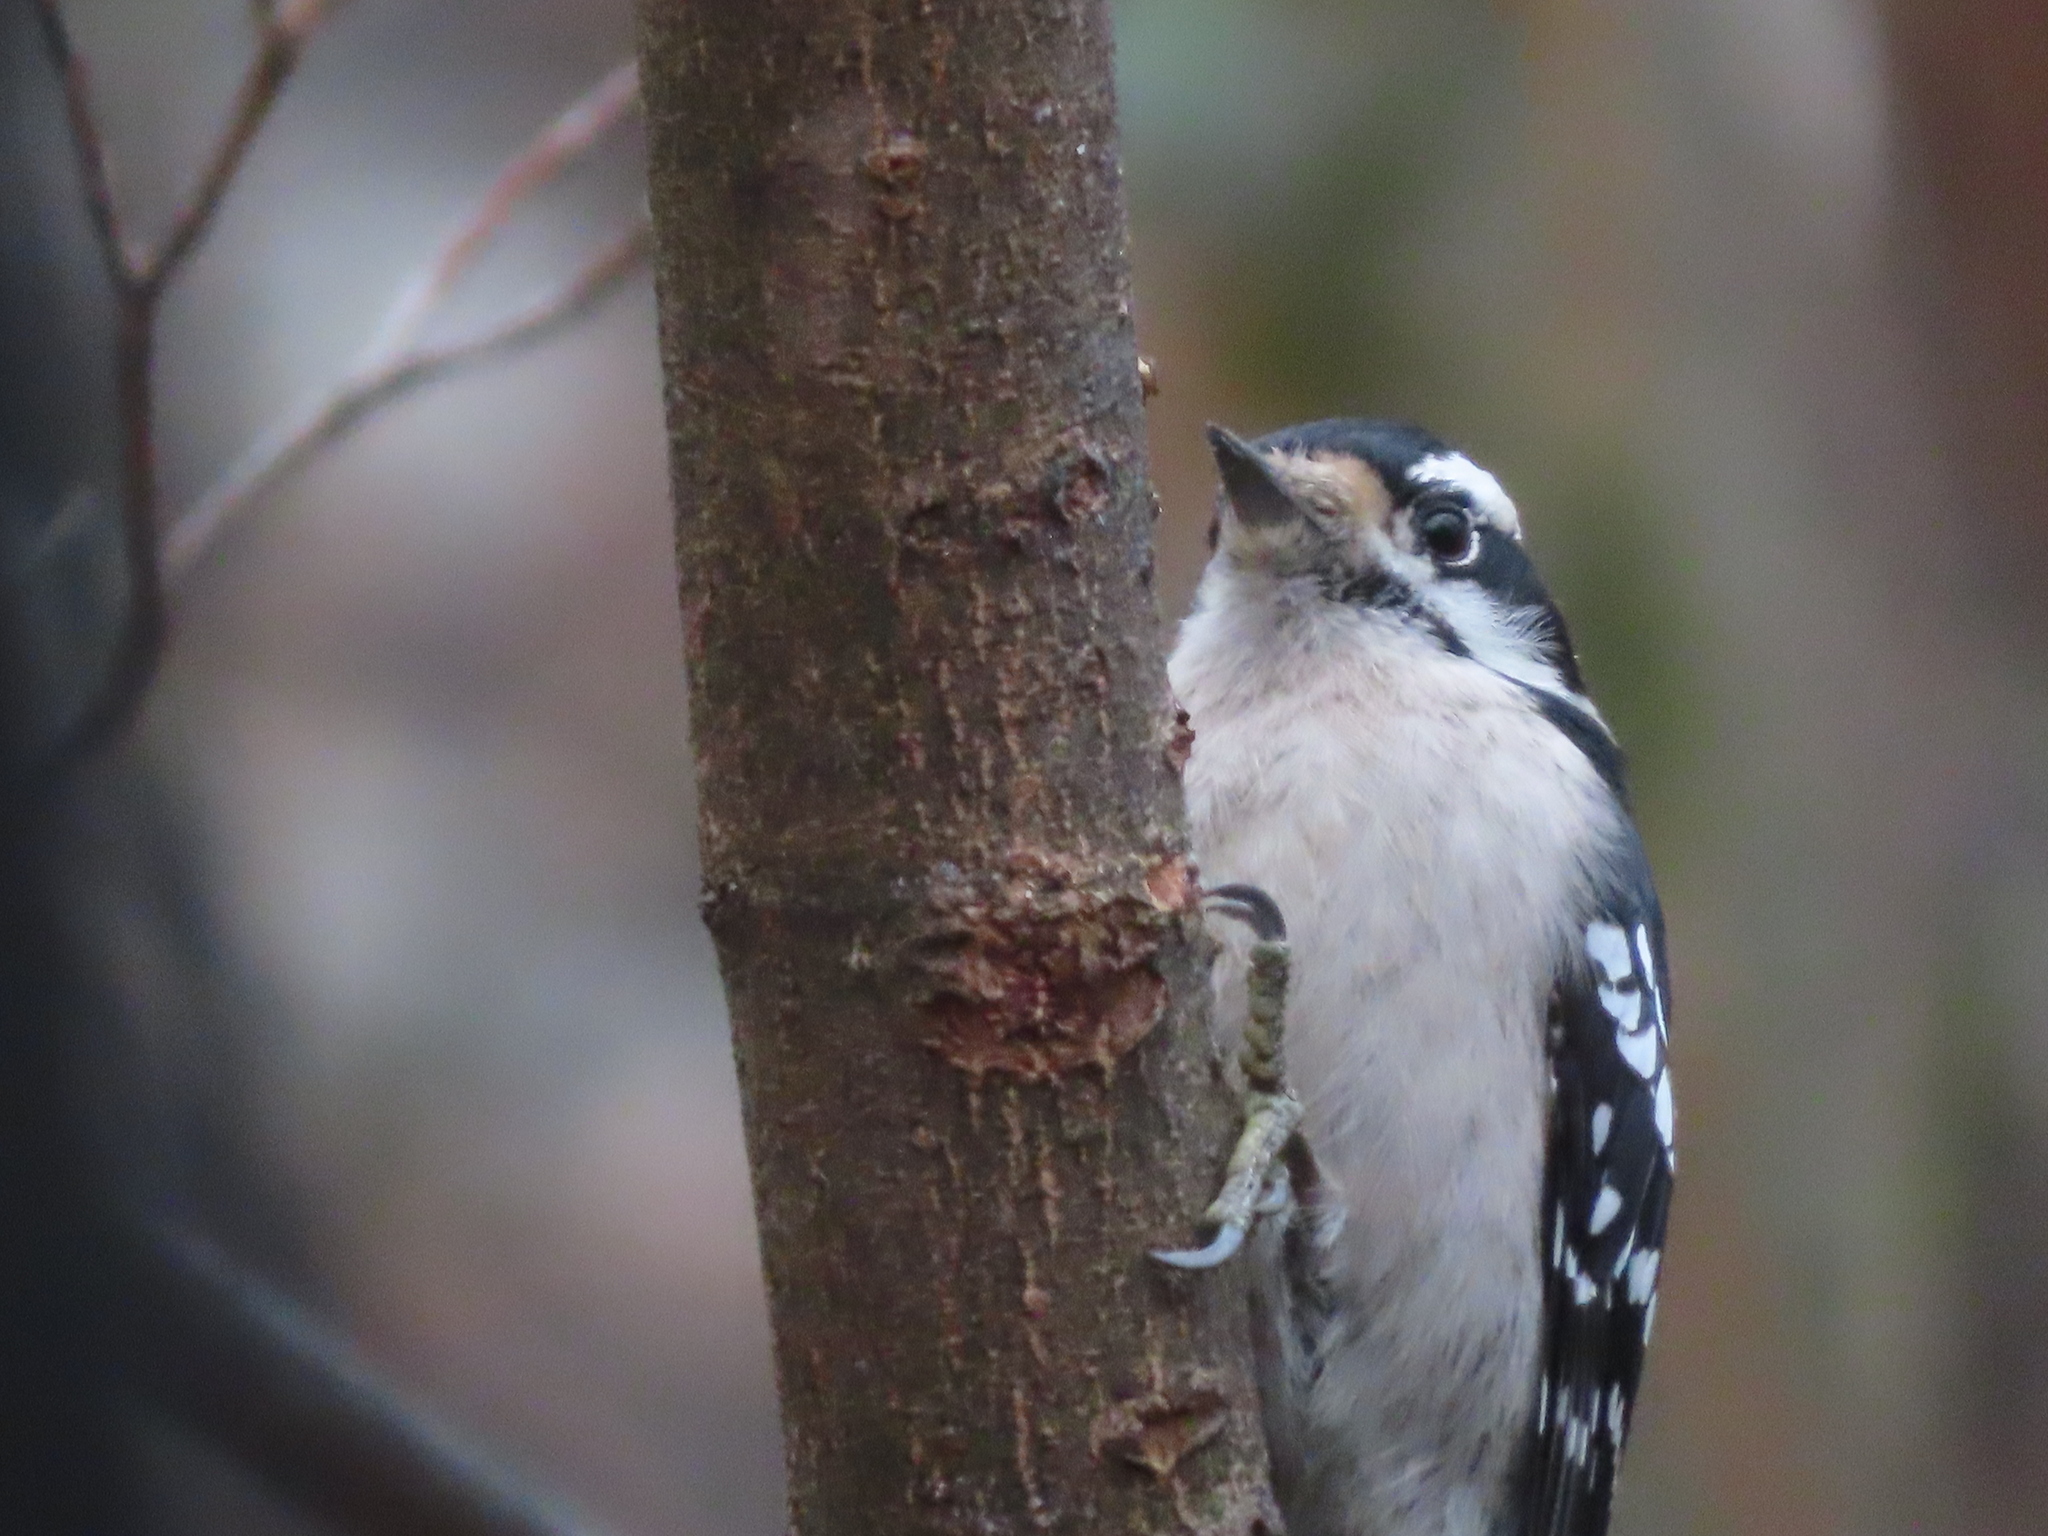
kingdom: Animalia
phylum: Chordata
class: Aves
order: Piciformes
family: Picidae
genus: Dryobates
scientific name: Dryobates pubescens
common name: Downy woodpecker
